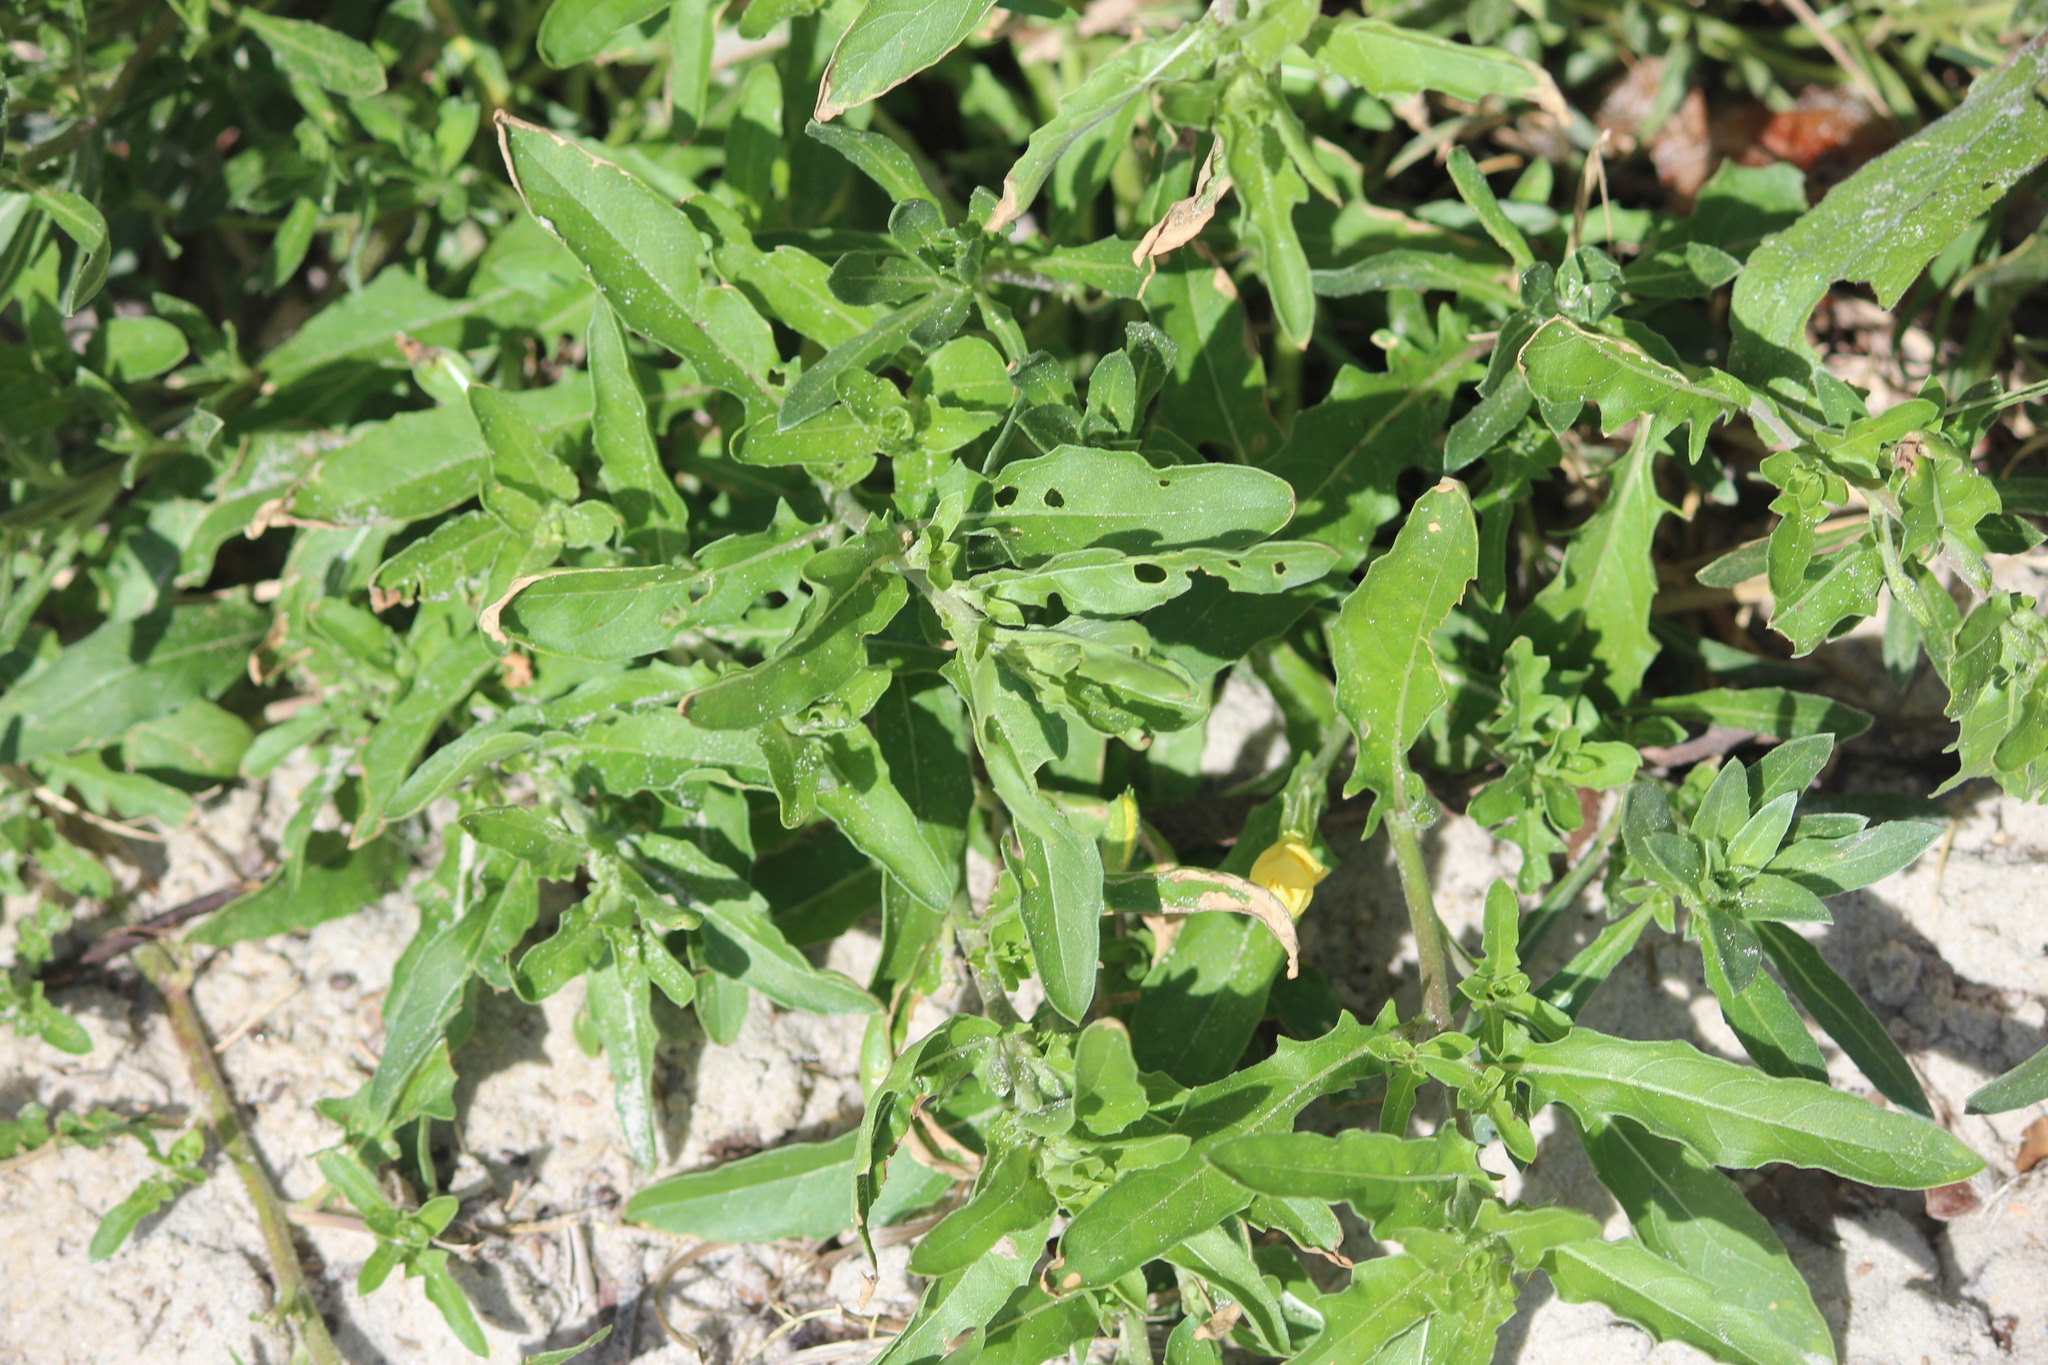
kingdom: Plantae
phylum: Tracheophyta
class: Magnoliopsida
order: Myrtales
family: Onagraceae
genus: Oenothera
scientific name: Oenothera laciniata
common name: Cut-leaved evening-primrose
